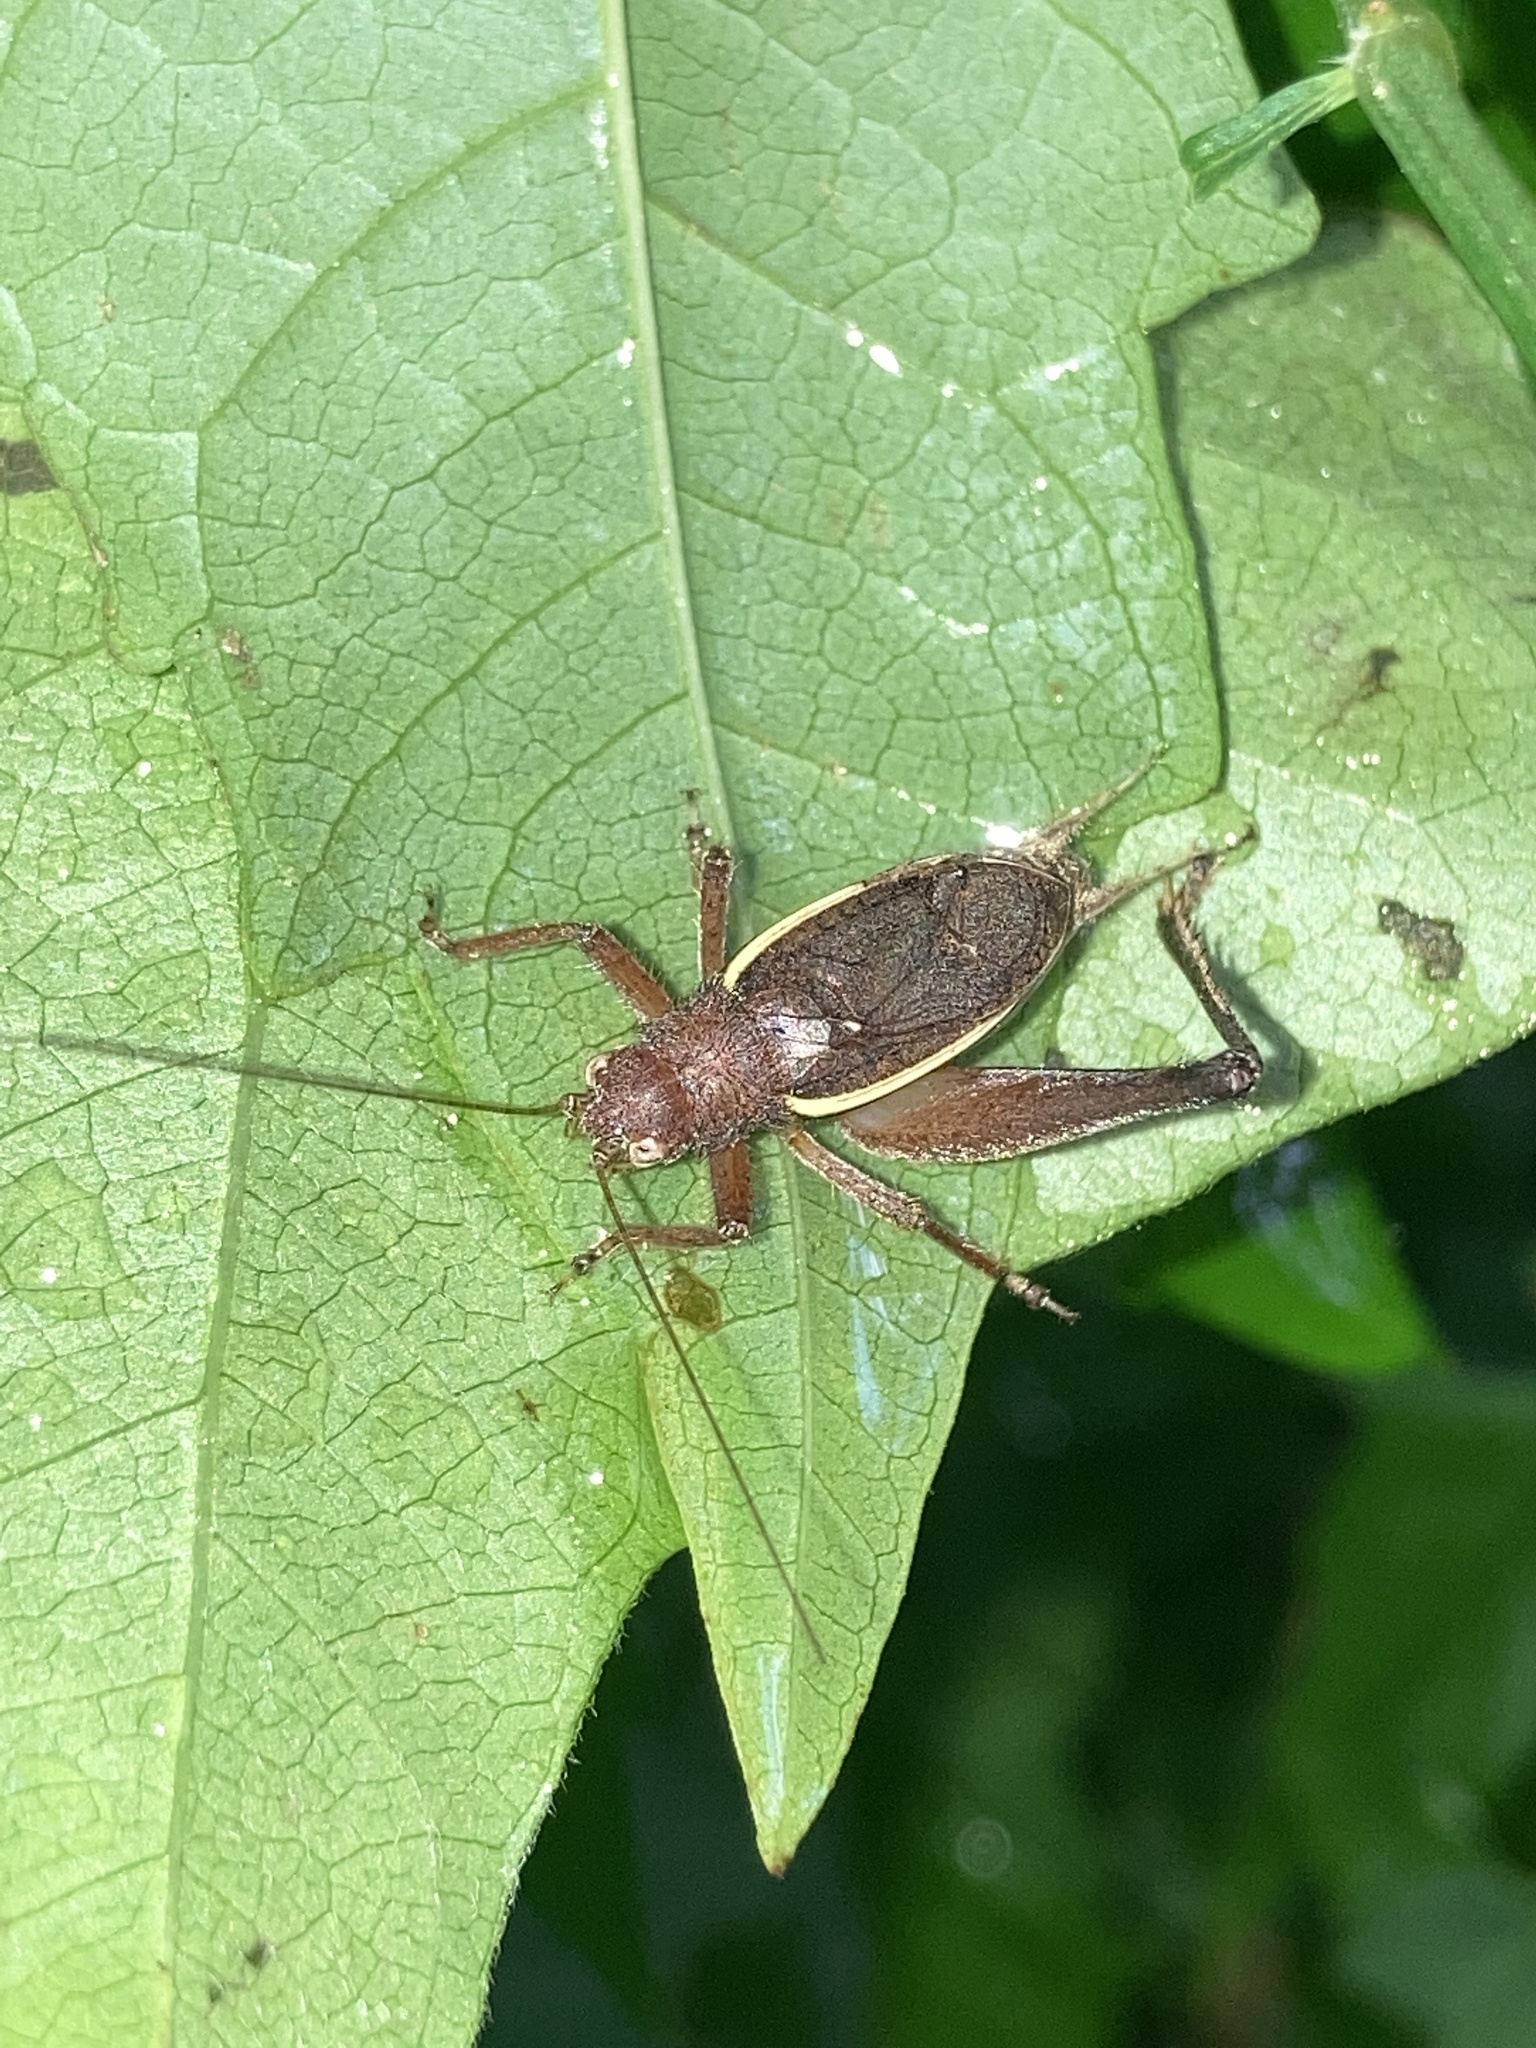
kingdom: Animalia
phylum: Arthropoda
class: Insecta
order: Orthoptera
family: Gryllidae
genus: Hapithus
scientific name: Hapithus agitator
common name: Restless bush cricket
